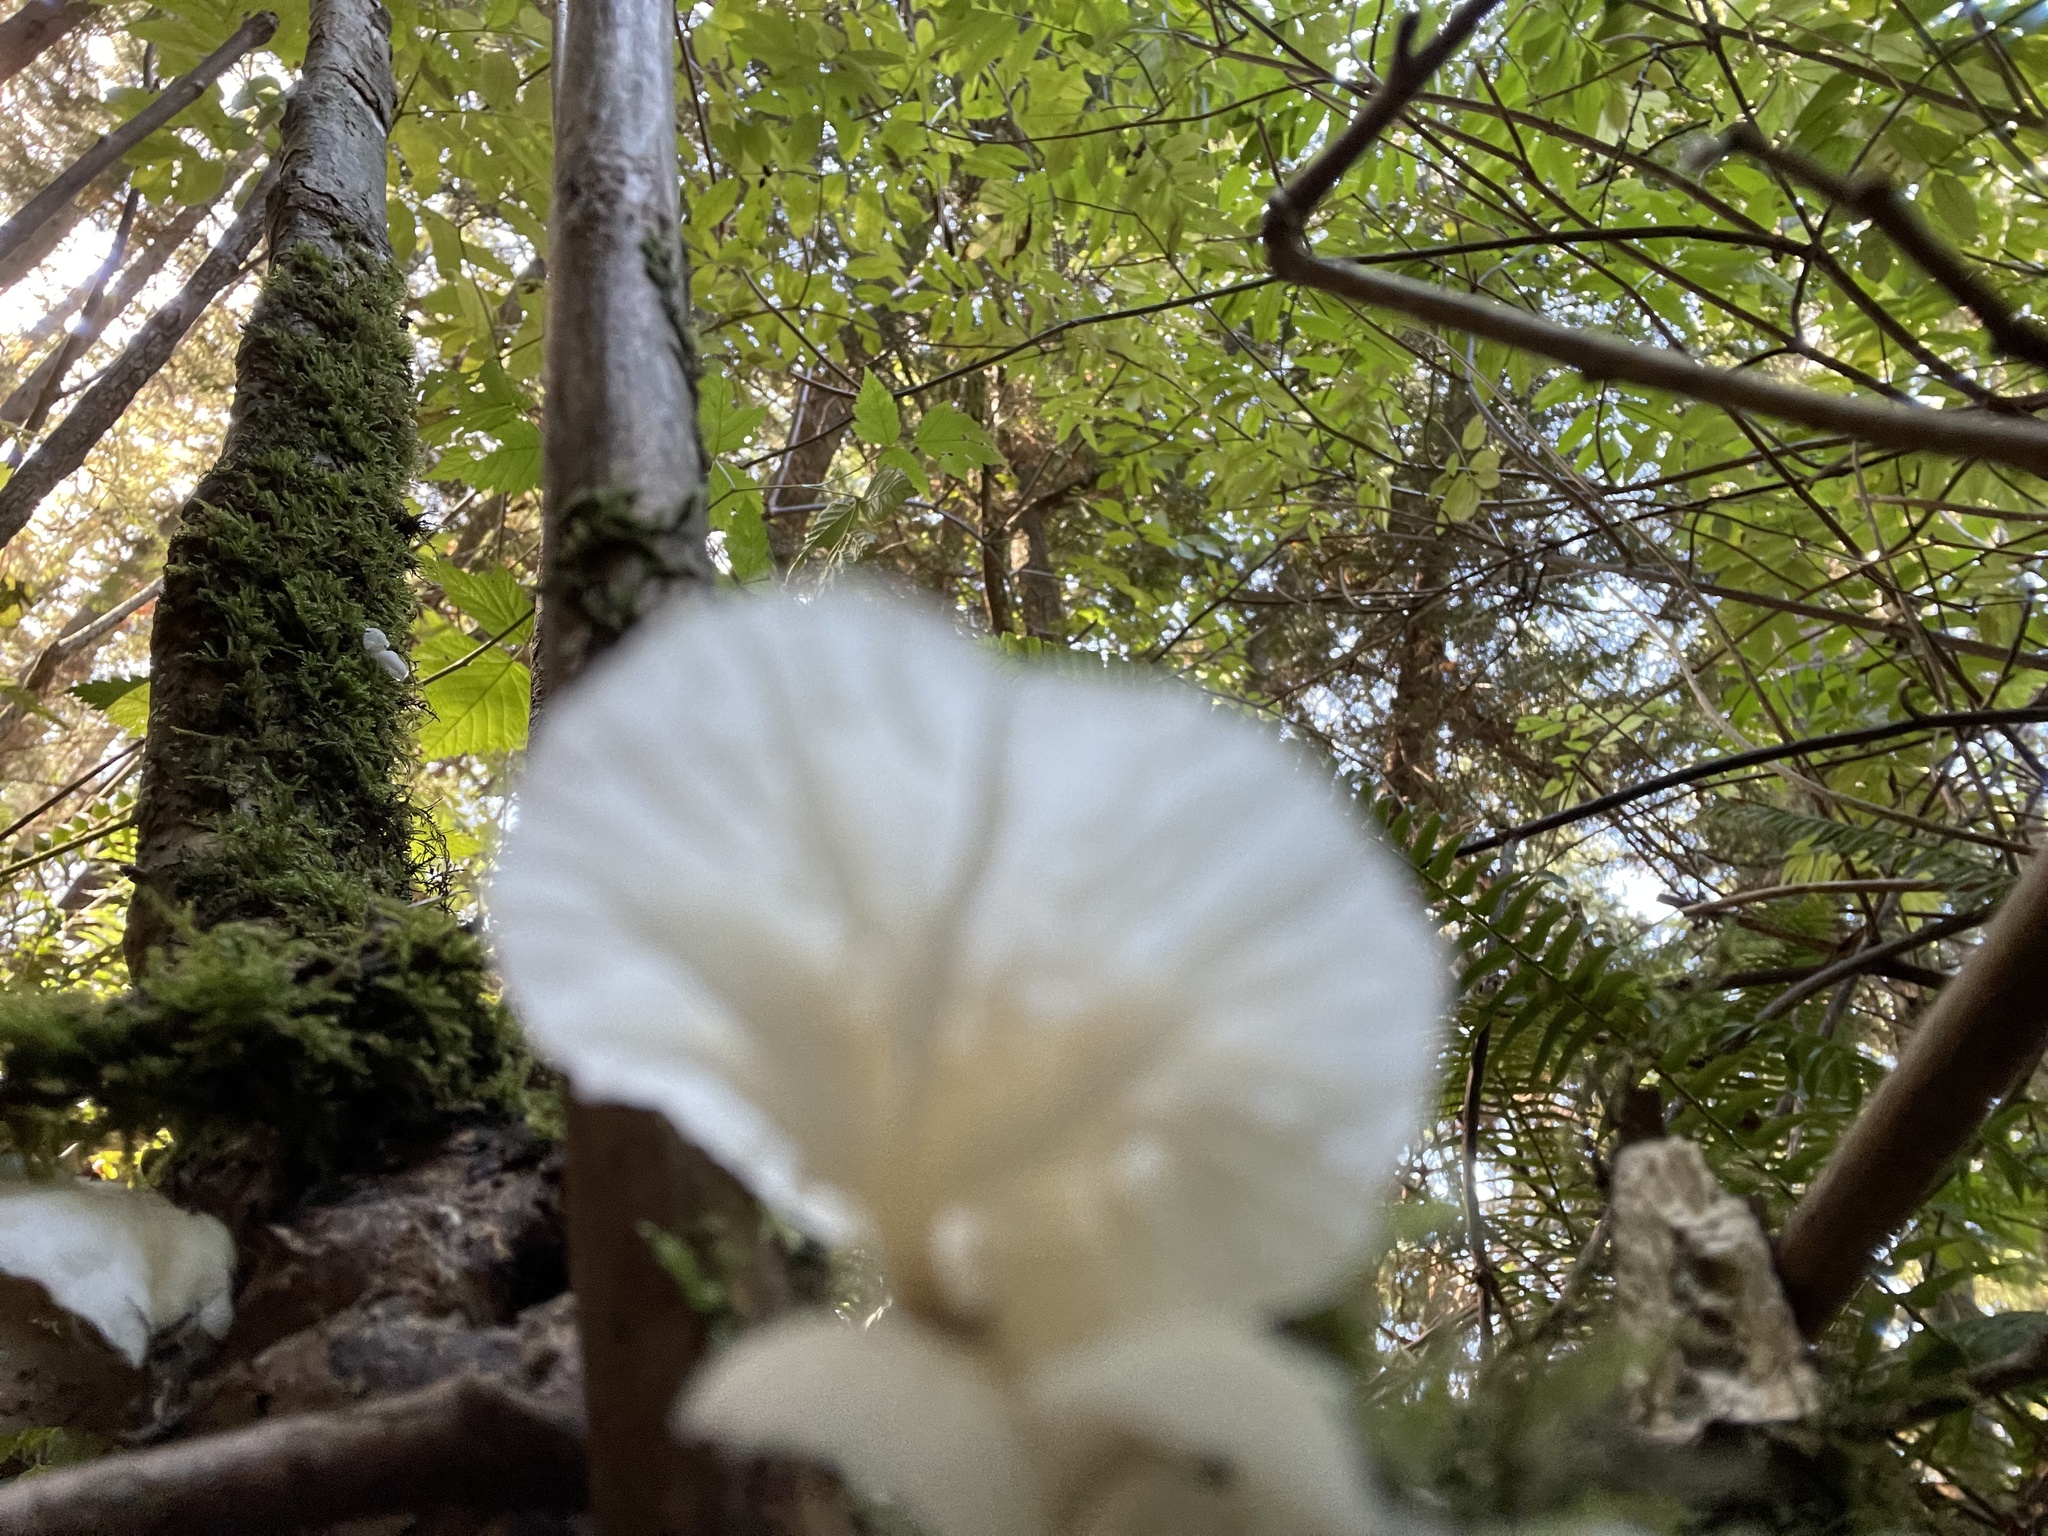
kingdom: Fungi
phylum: Basidiomycota
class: Agaricomycetes
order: Agaricales
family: Omphalotaceae
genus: Marasmiellus
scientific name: Marasmiellus candidus
